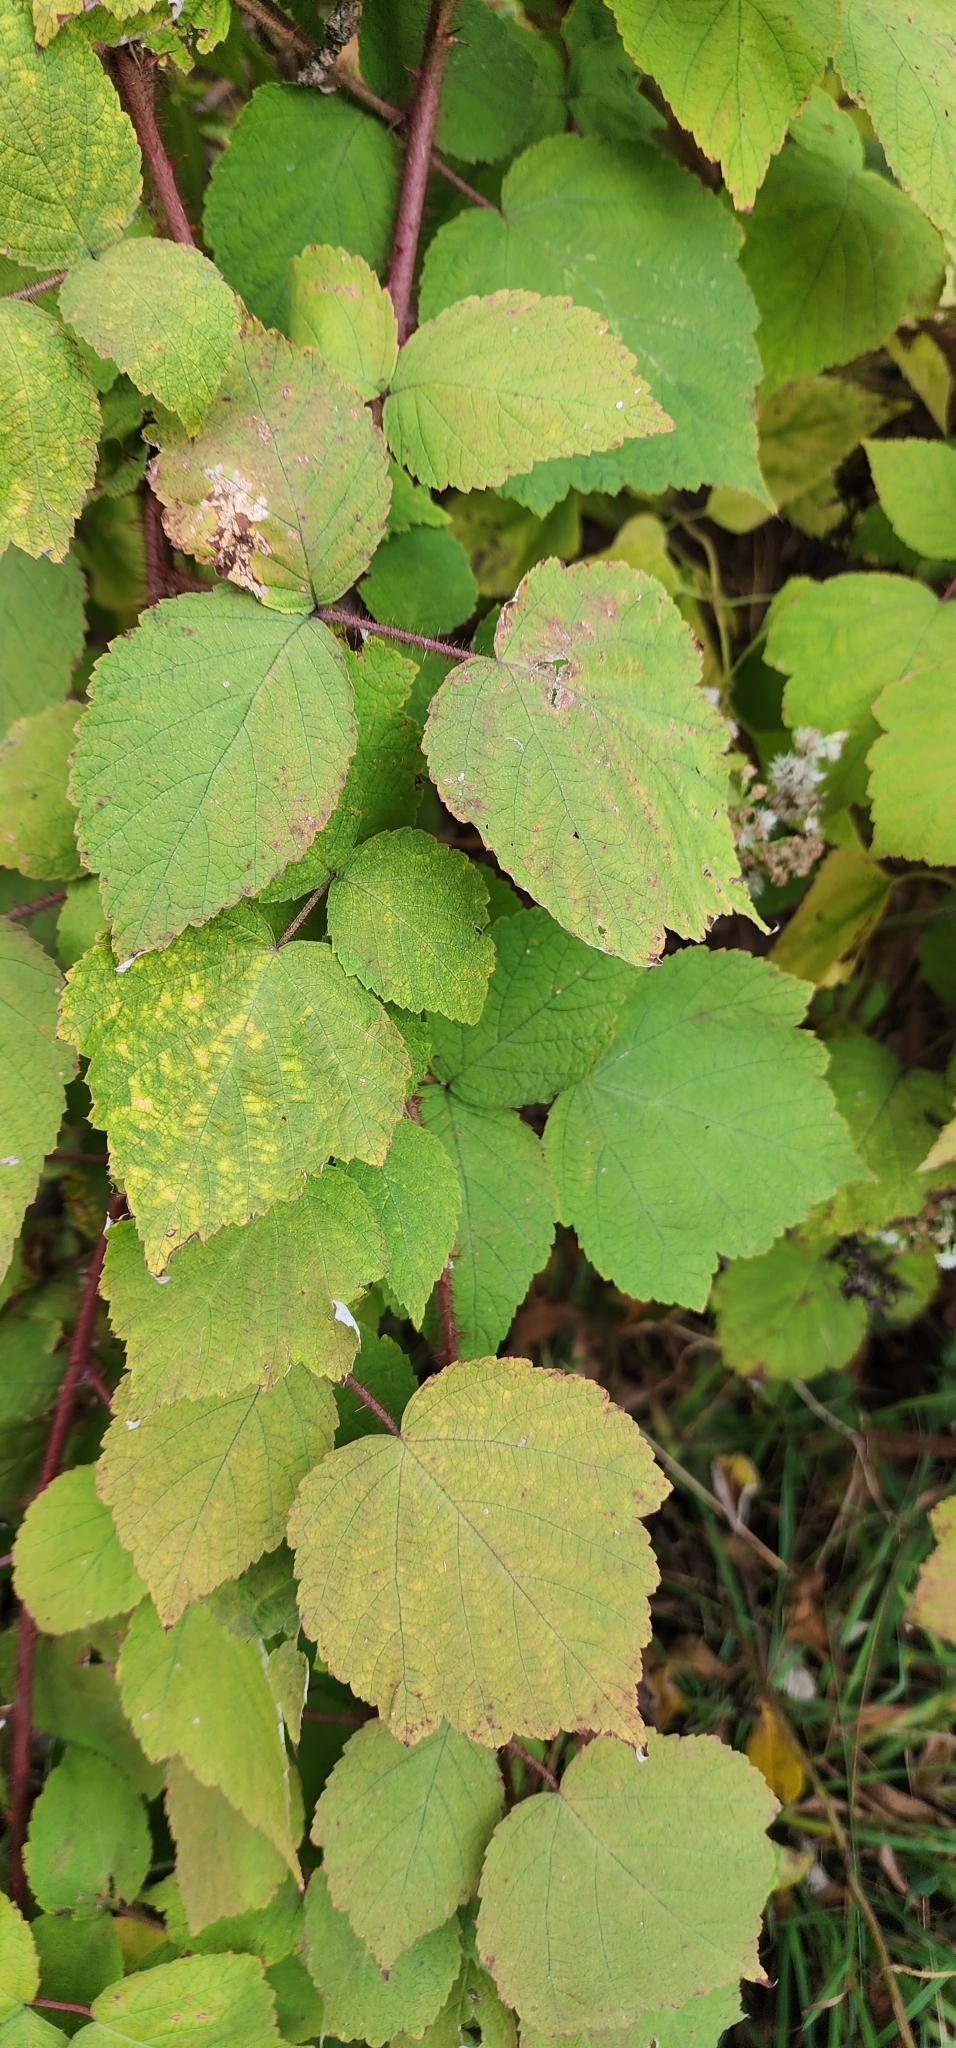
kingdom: Plantae
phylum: Tracheophyta
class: Magnoliopsida
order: Rosales
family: Rosaceae
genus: Rubus
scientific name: Rubus phoenicolasius
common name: Japanese wineberry
